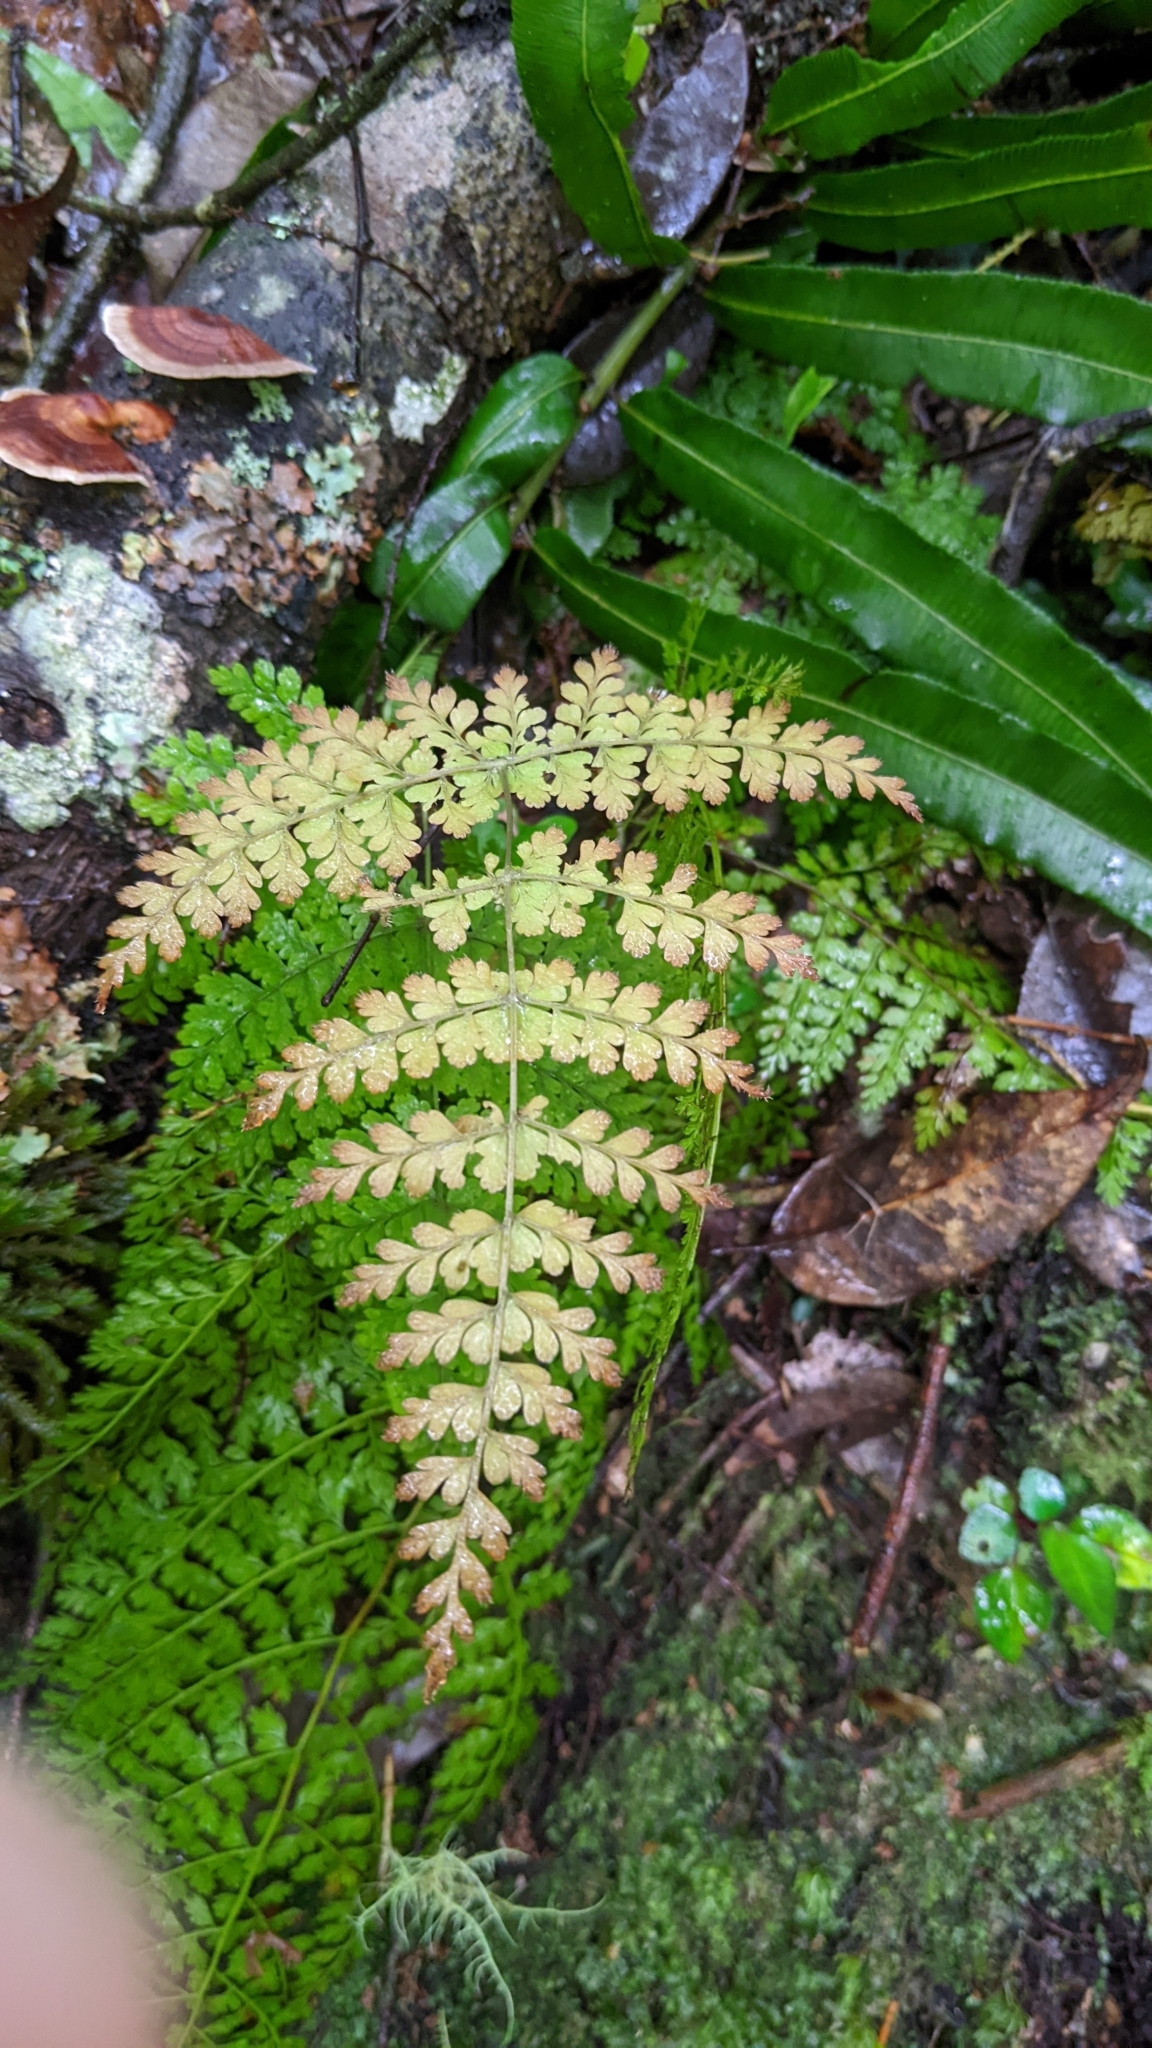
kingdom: Plantae
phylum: Tracheophyta
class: Polypodiopsida
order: Polypodiales
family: Dryopteridaceae
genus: Dryopteris
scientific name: Dryopteris paleolata
